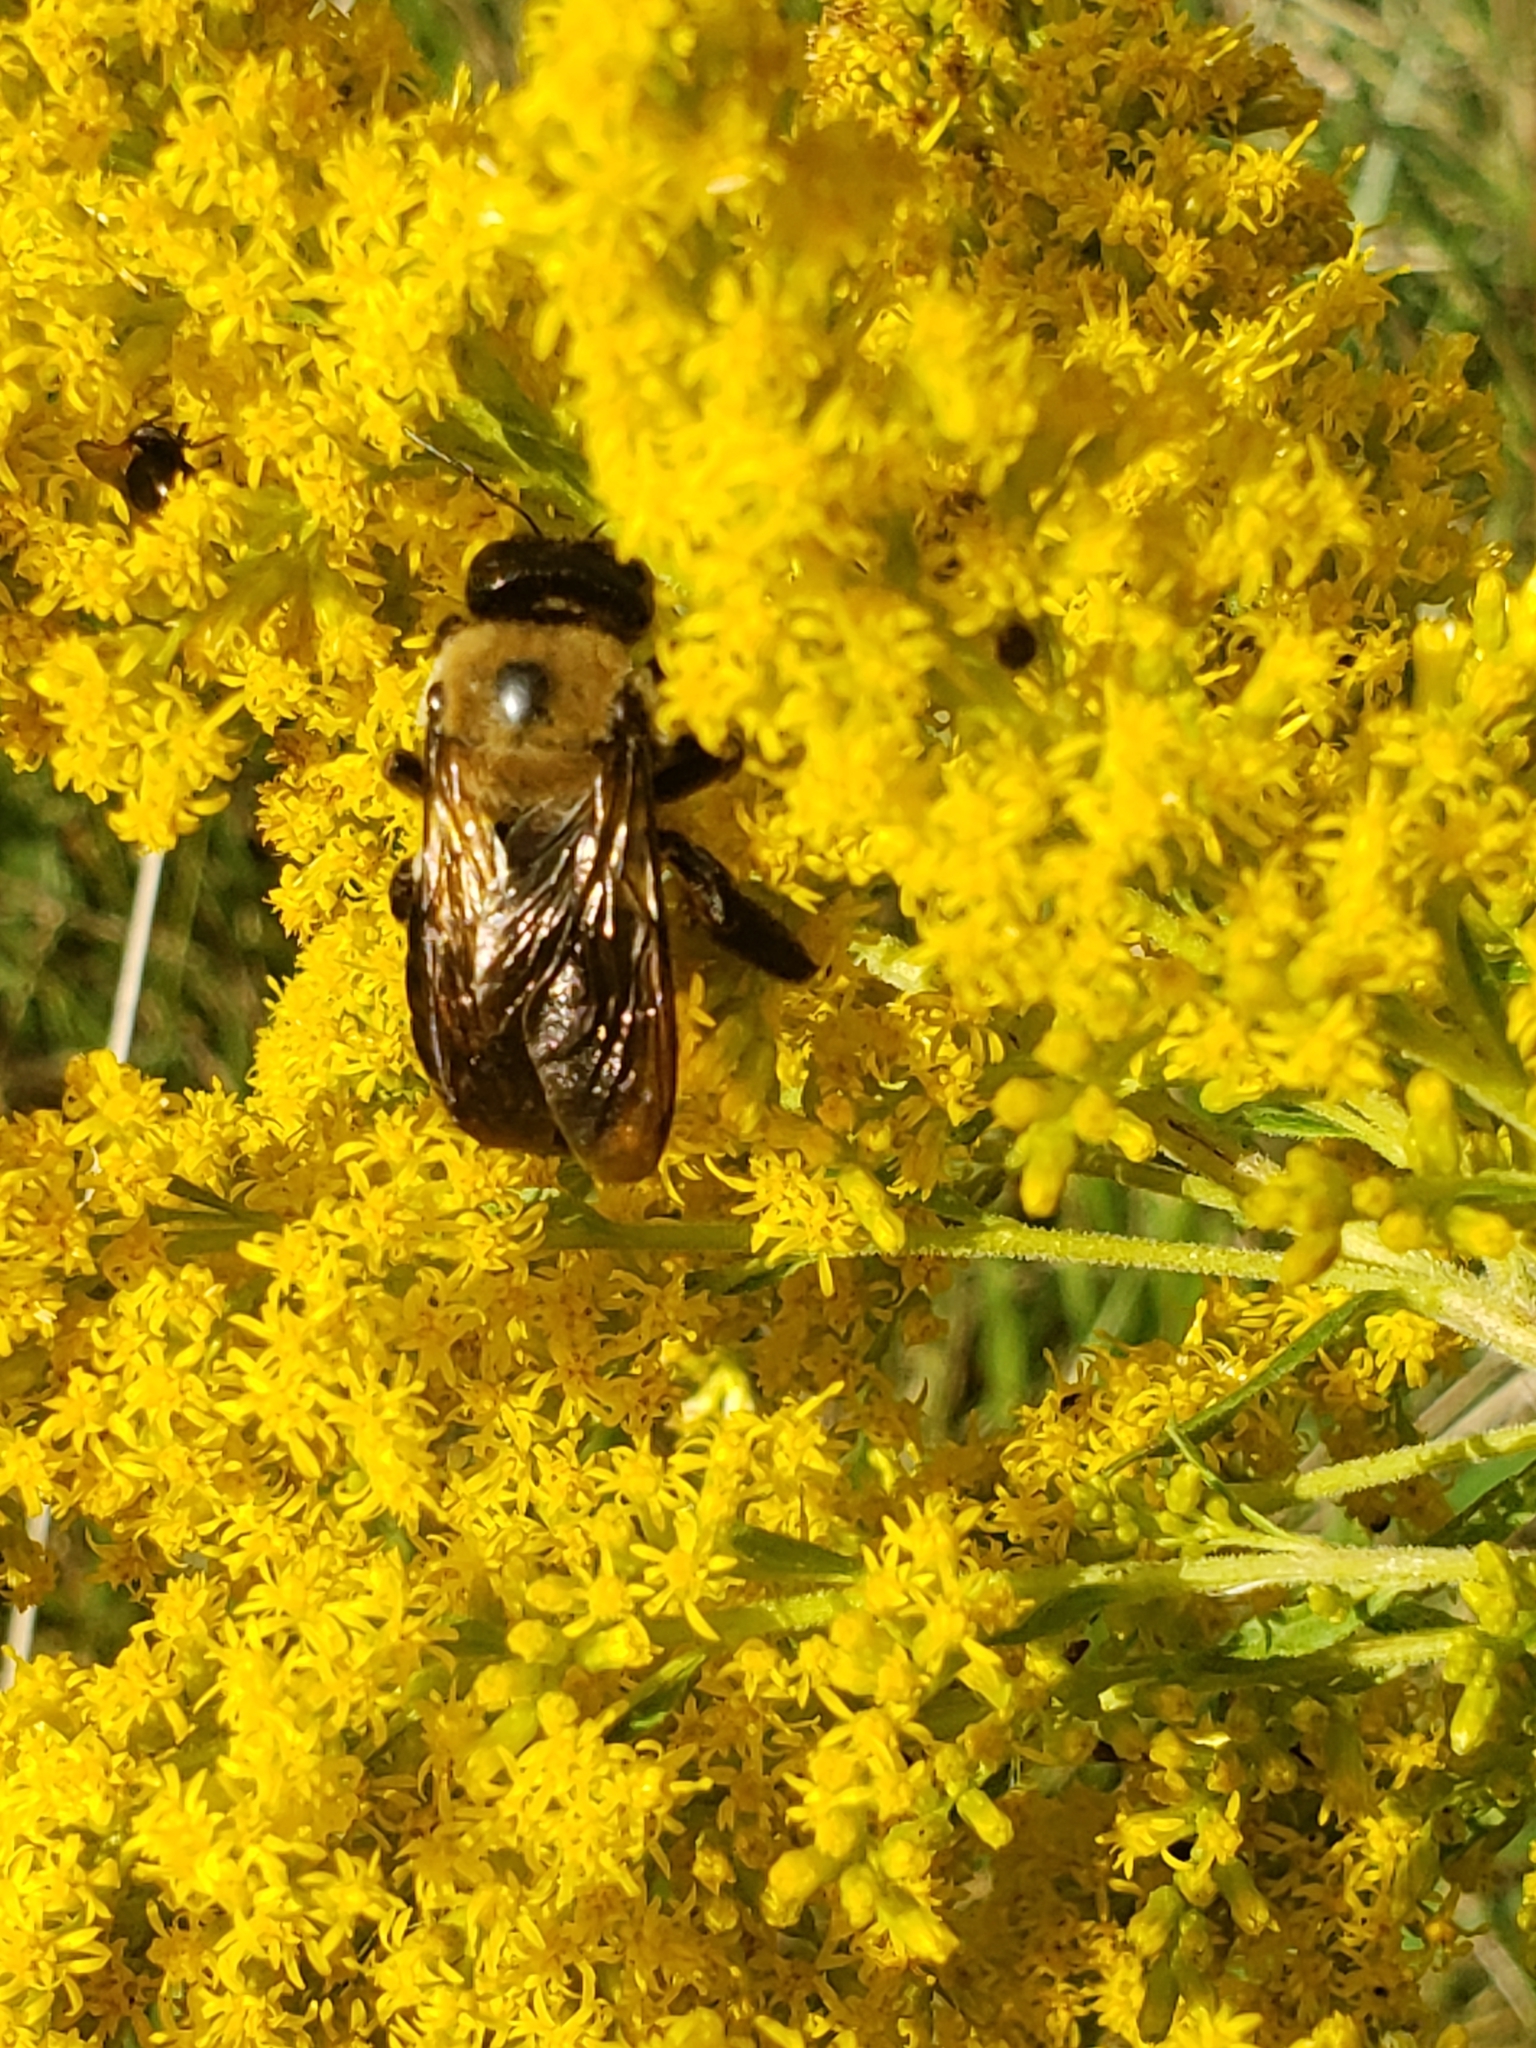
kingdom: Animalia
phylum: Arthropoda
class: Insecta
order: Hymenoptera
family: Apidae
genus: Xylocopa
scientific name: Xylocopa virginica
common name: Carpenter bee
